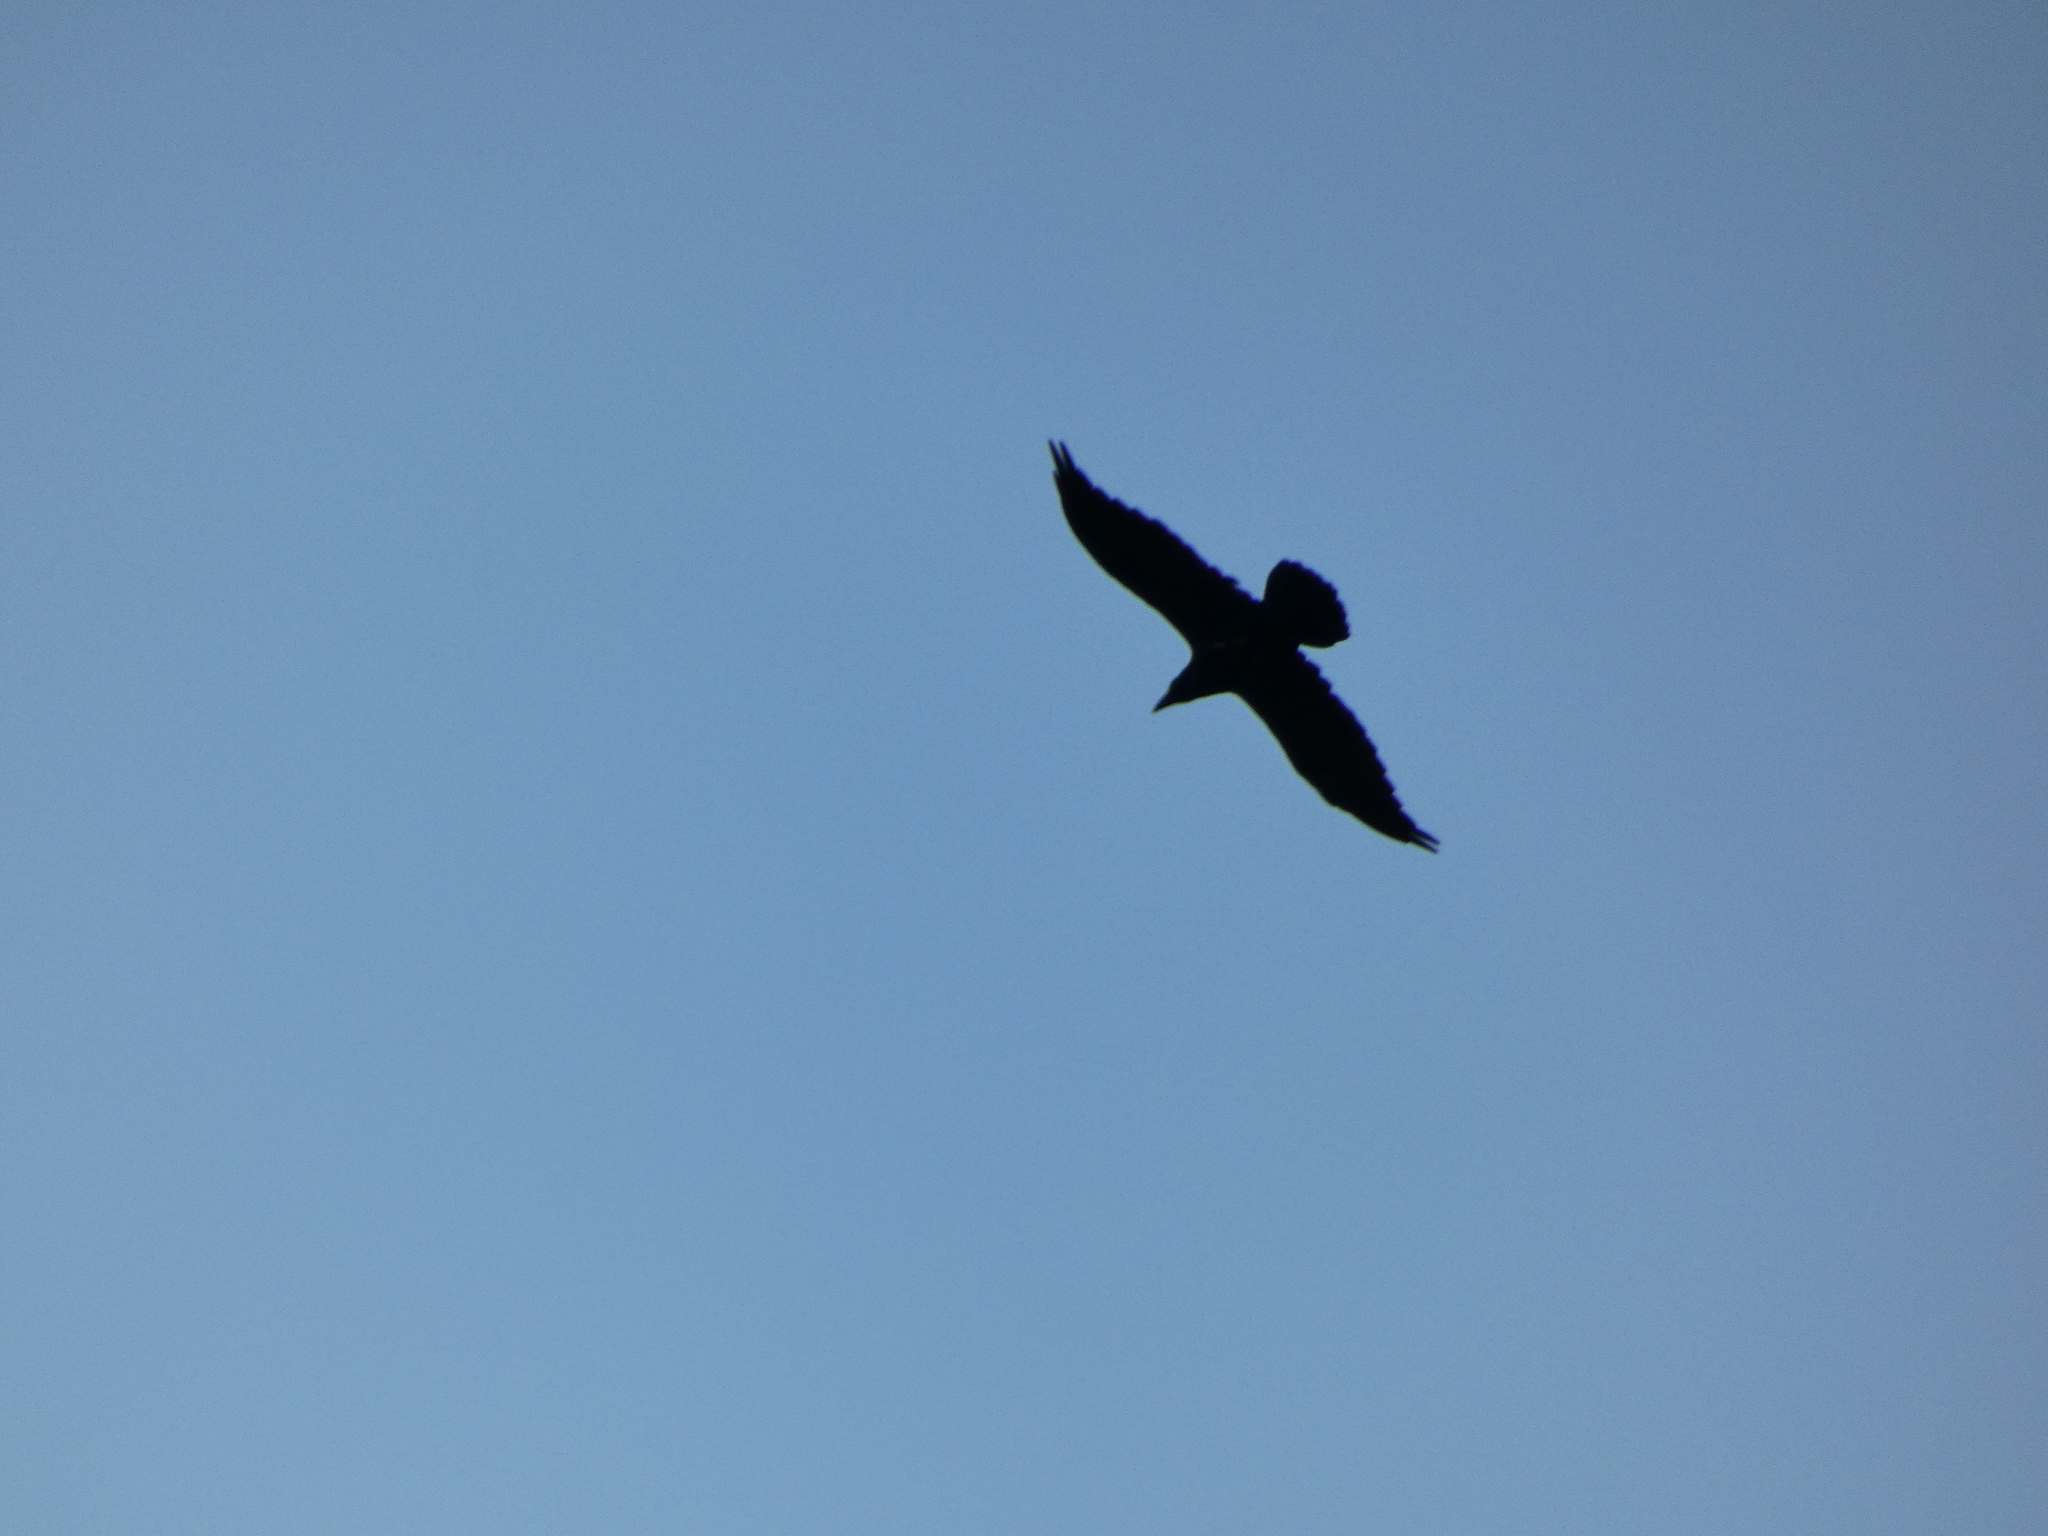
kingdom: Animalia
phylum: Chordata
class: Aves
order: Passeriformes
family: Corvidae
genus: Corvus
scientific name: Corvus corax
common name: Common raven
